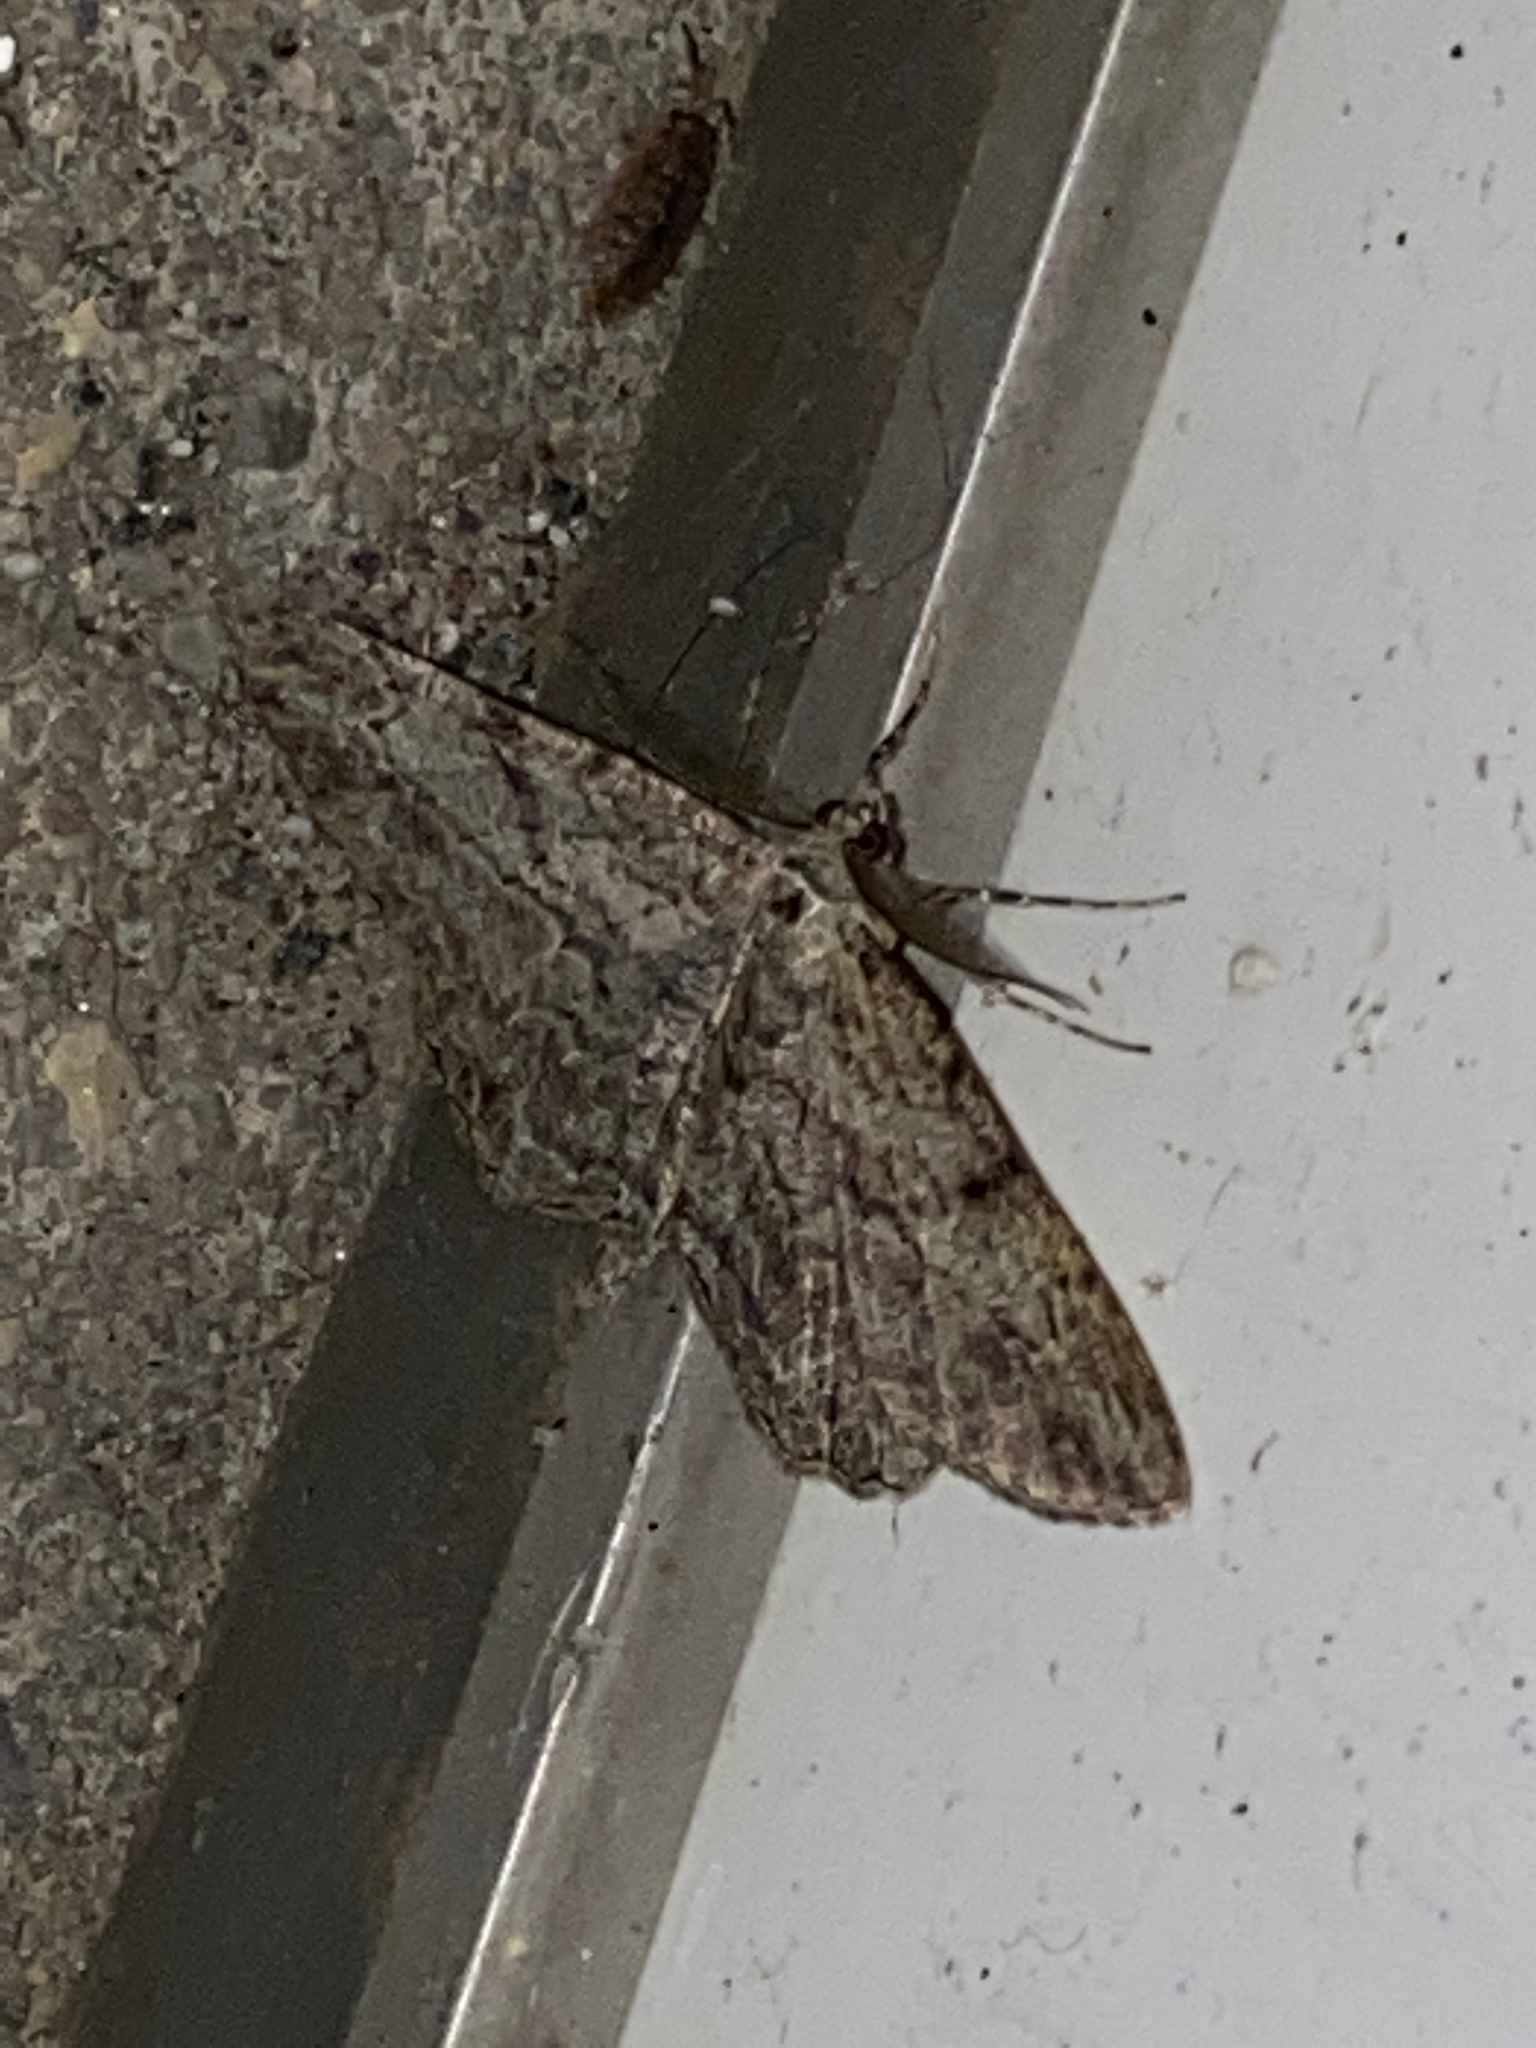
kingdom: Animalia
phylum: Arthropoda
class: Insecta
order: Lepidoptera
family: Geometridae
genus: Peribatodes
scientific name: Peribatodes rhomboidaria
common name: Willow beauty
